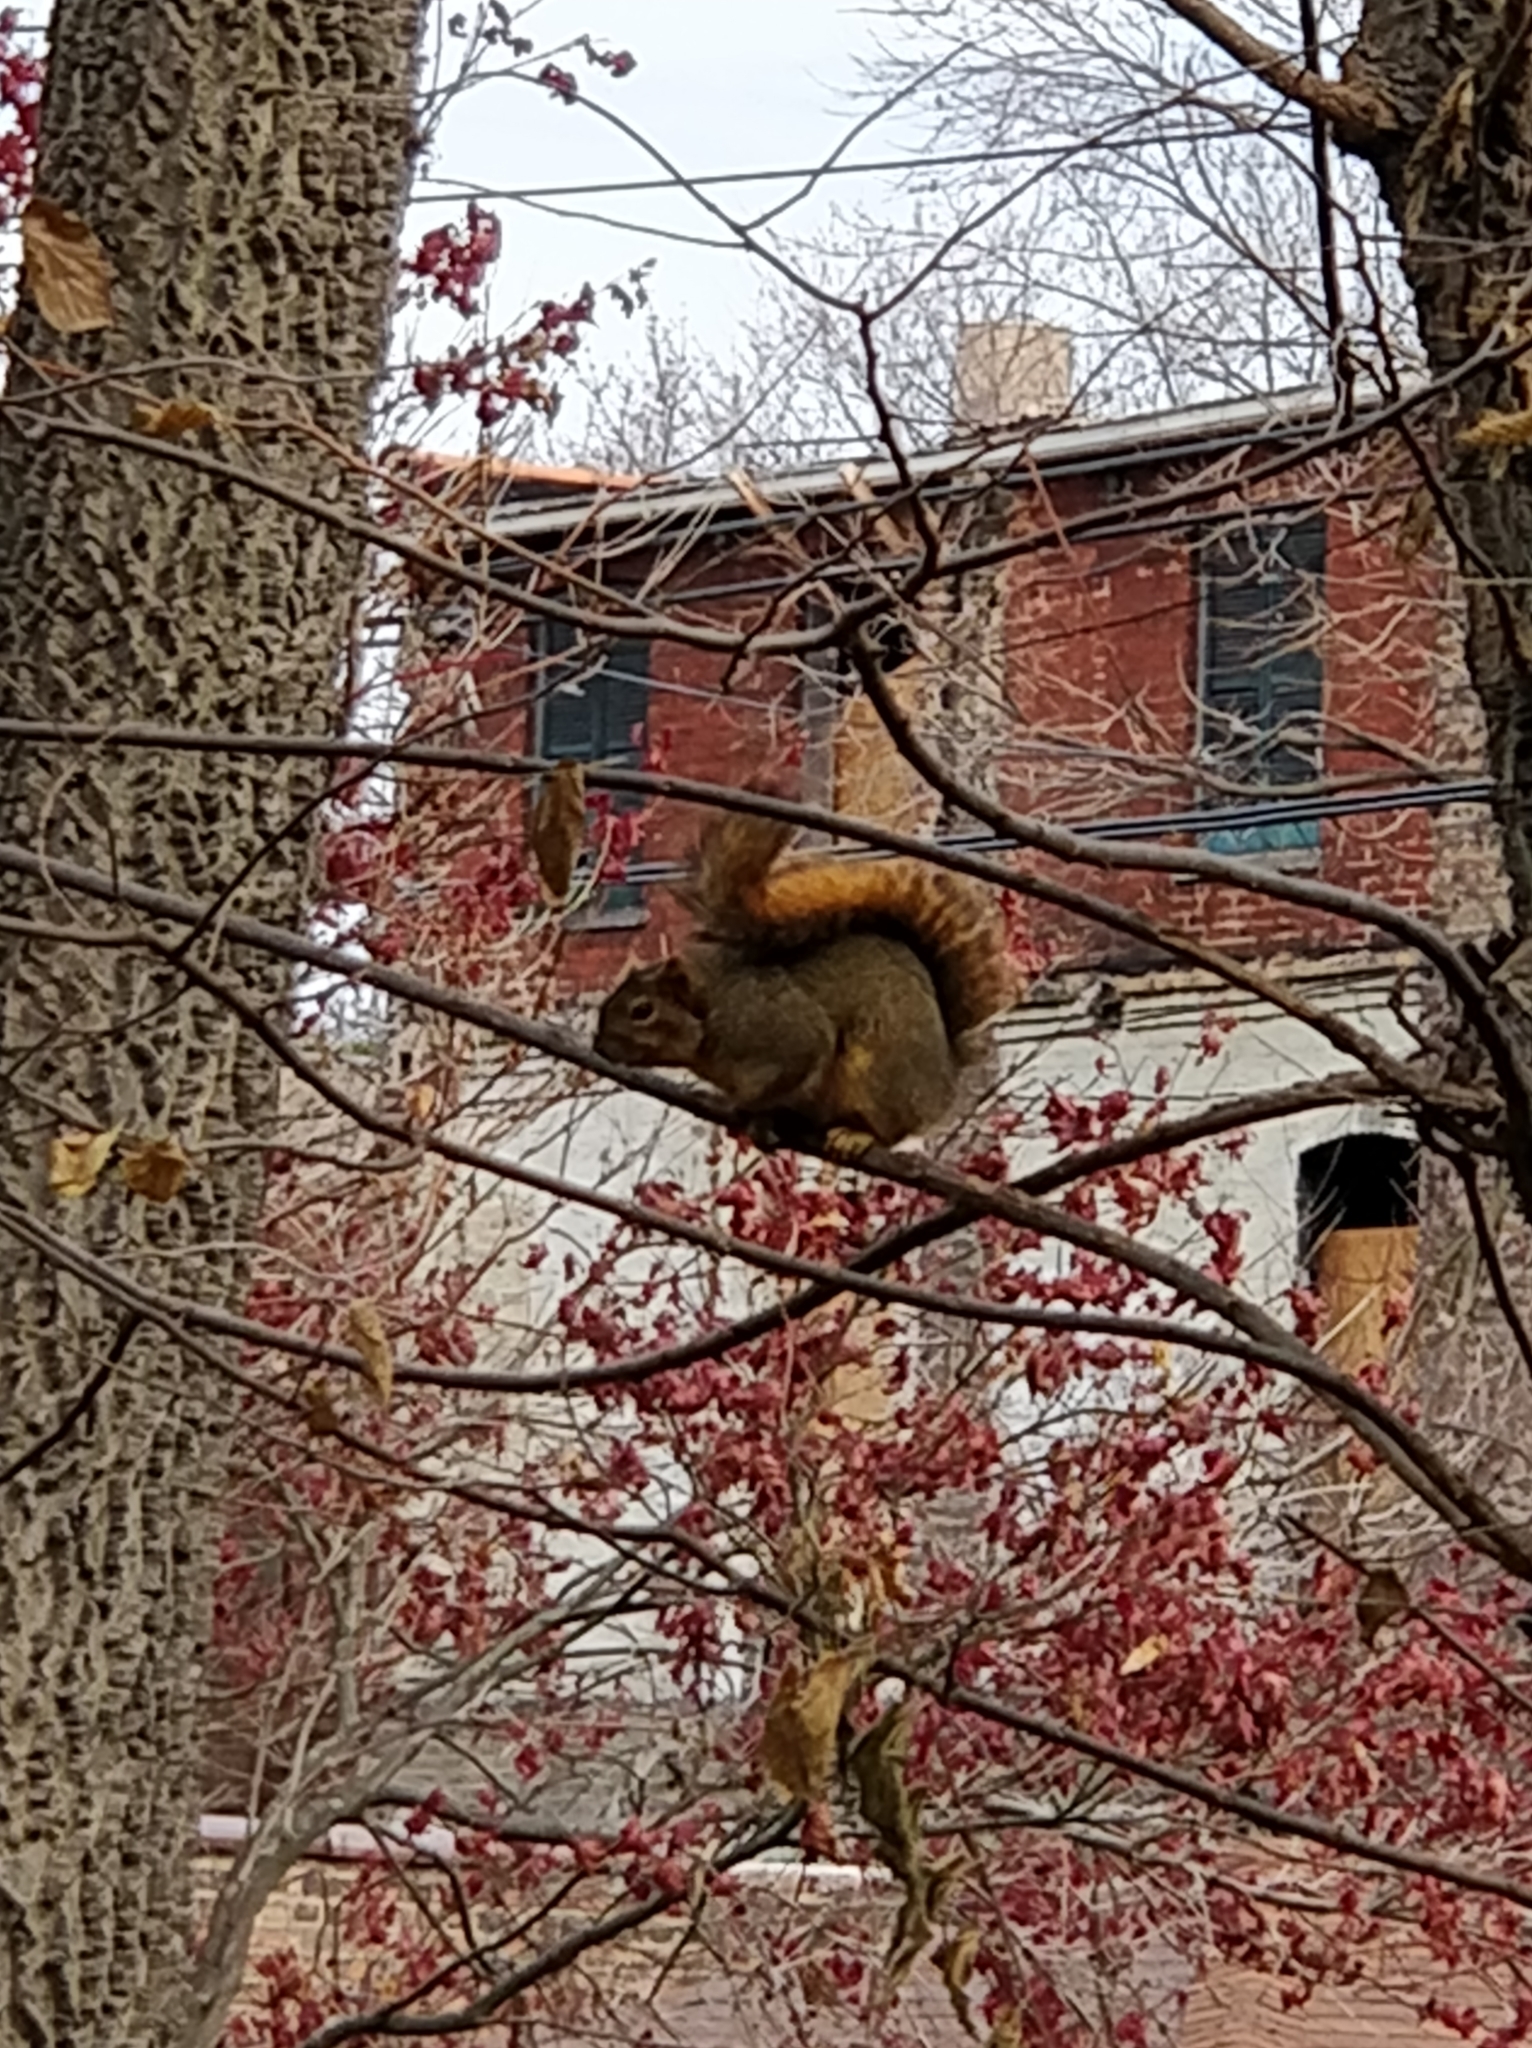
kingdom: Animalia
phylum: Chordata
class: Mammalia
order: Rodentia
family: Sciuridae
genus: Sciurus
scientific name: Sciurus niger
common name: Fox squirrel
